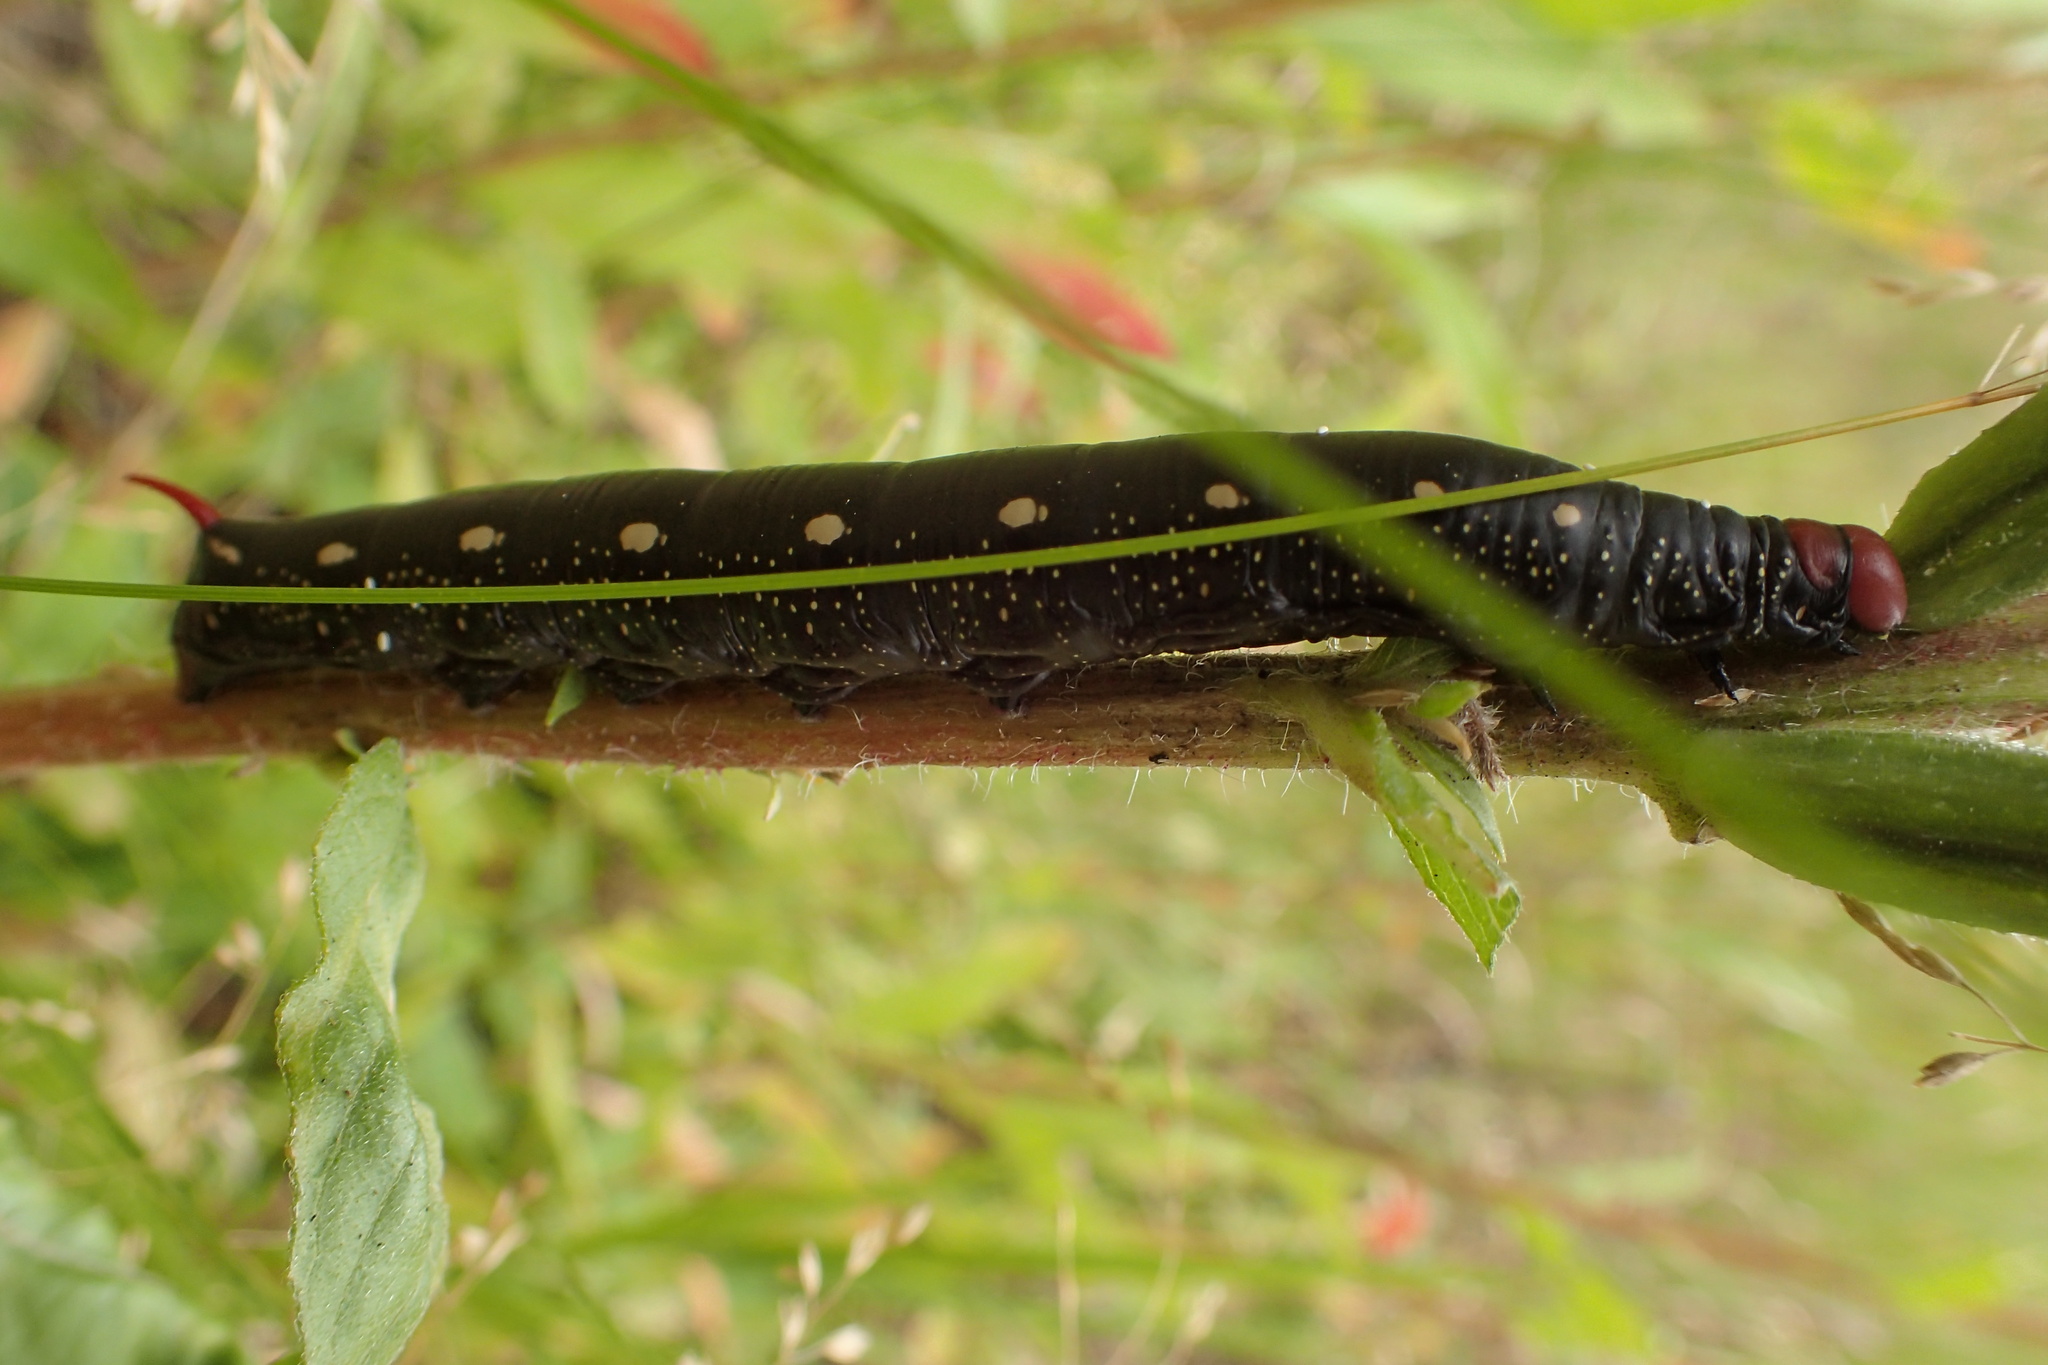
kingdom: Animalia
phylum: Arthropoda
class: Insecta
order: Lepidoptera
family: Sphingidae
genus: Hyles
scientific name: Hyles gallii
